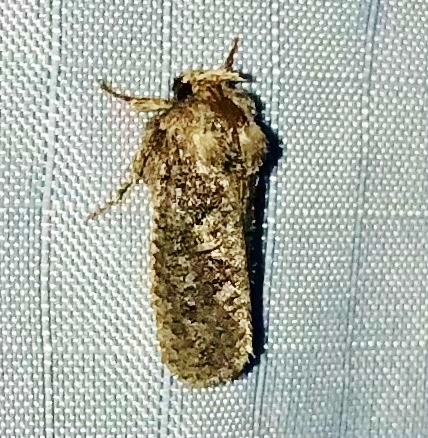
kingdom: Animalia
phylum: Arthropoda
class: Insecta
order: Lepidoptera
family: Tineidae
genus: Acrolophus
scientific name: Acrolophus arcanella
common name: Arcane grass tubeworm moth
